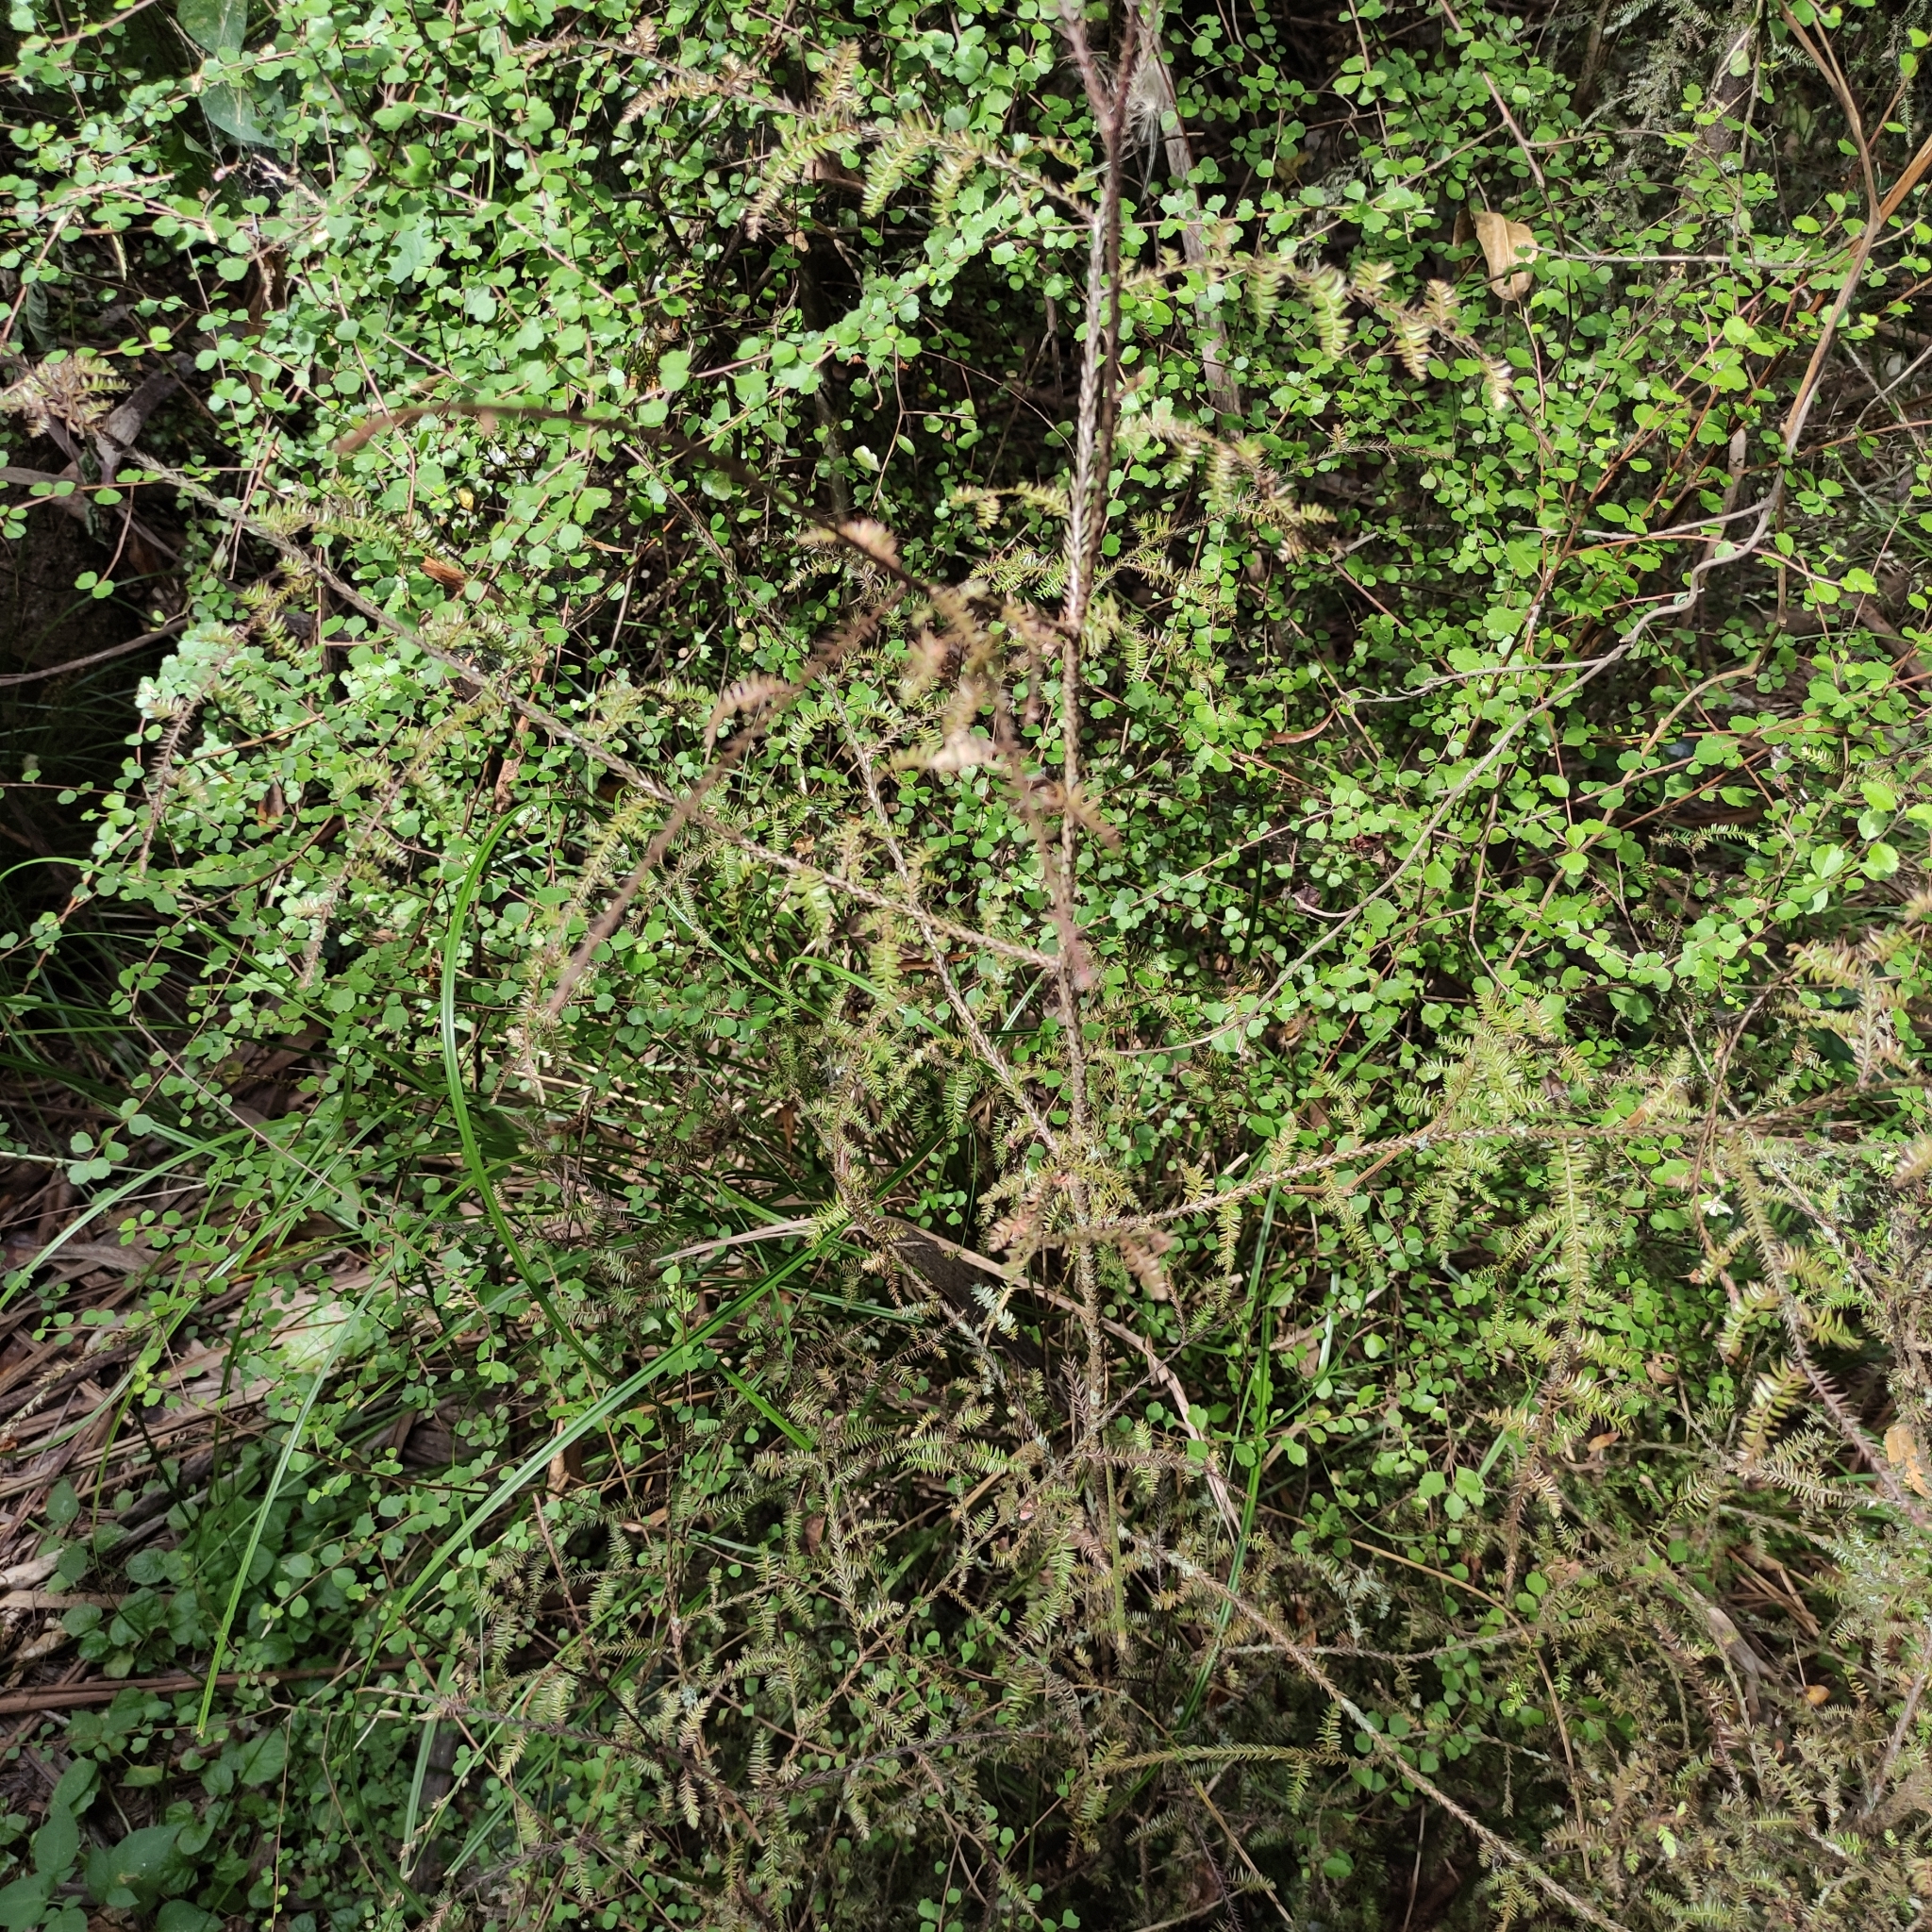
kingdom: Plantae
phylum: Tracheophyta
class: Pinopsida
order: Pinales
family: Podocarpaceae
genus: Dacrycarpus
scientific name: Dacrycarpus dacrydioides
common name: White pine
